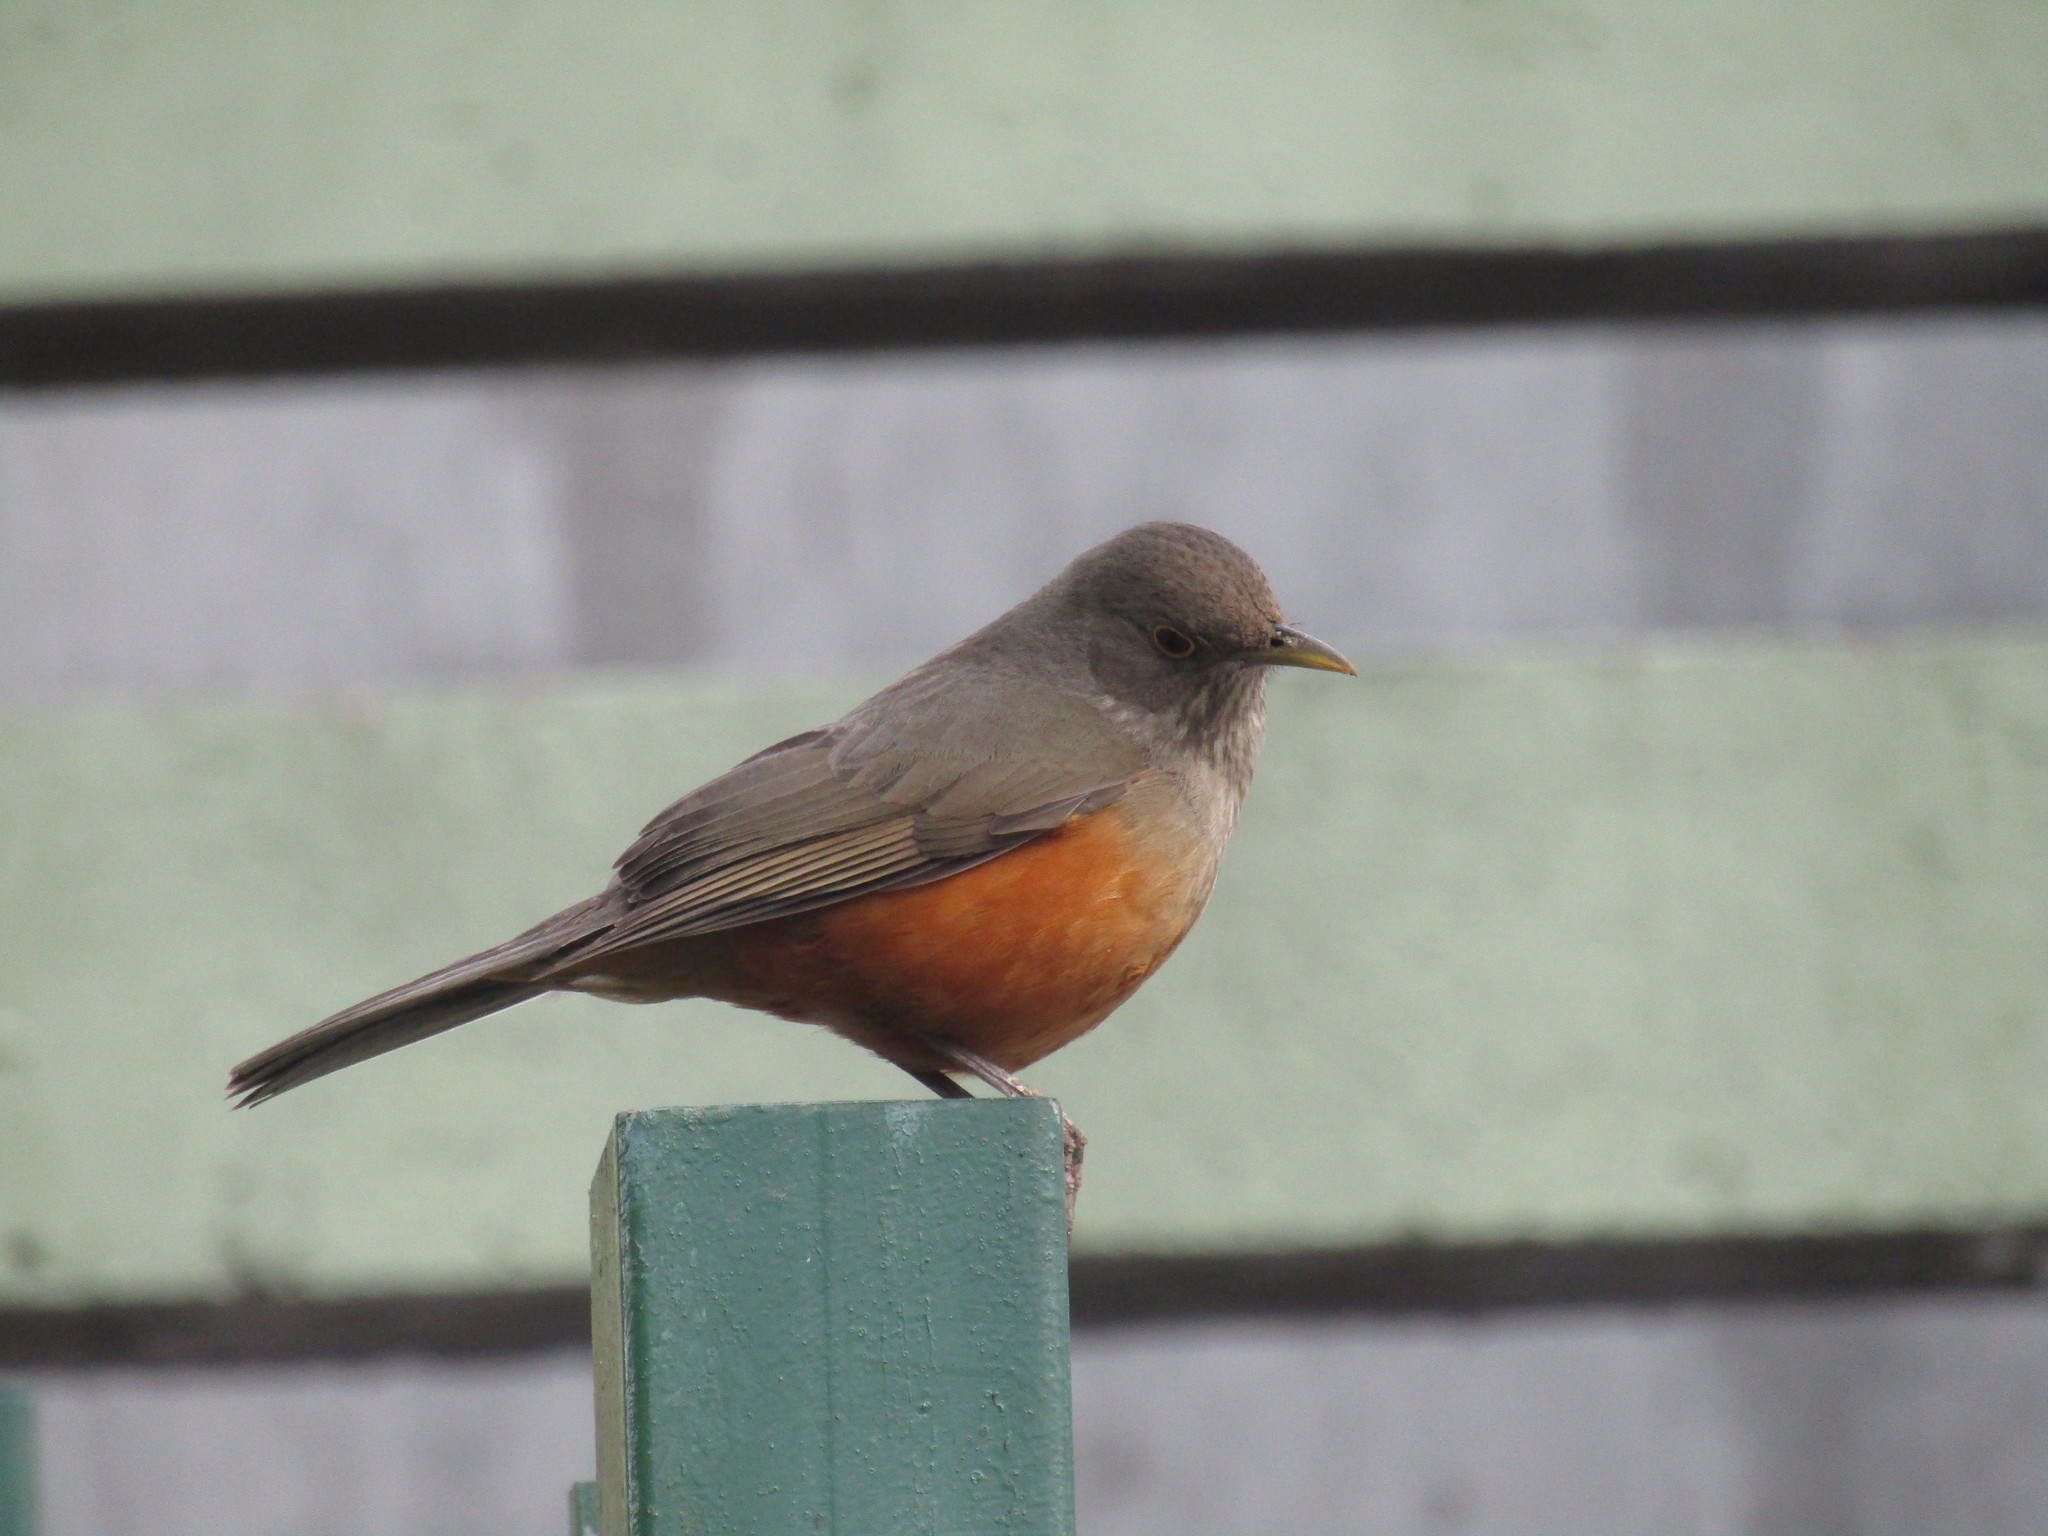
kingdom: Animalia
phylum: Chordata
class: Aves
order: Passeriformes
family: Turdidae
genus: Turdus
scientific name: Turdus rufiventris
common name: Rufous-bellied thrush
